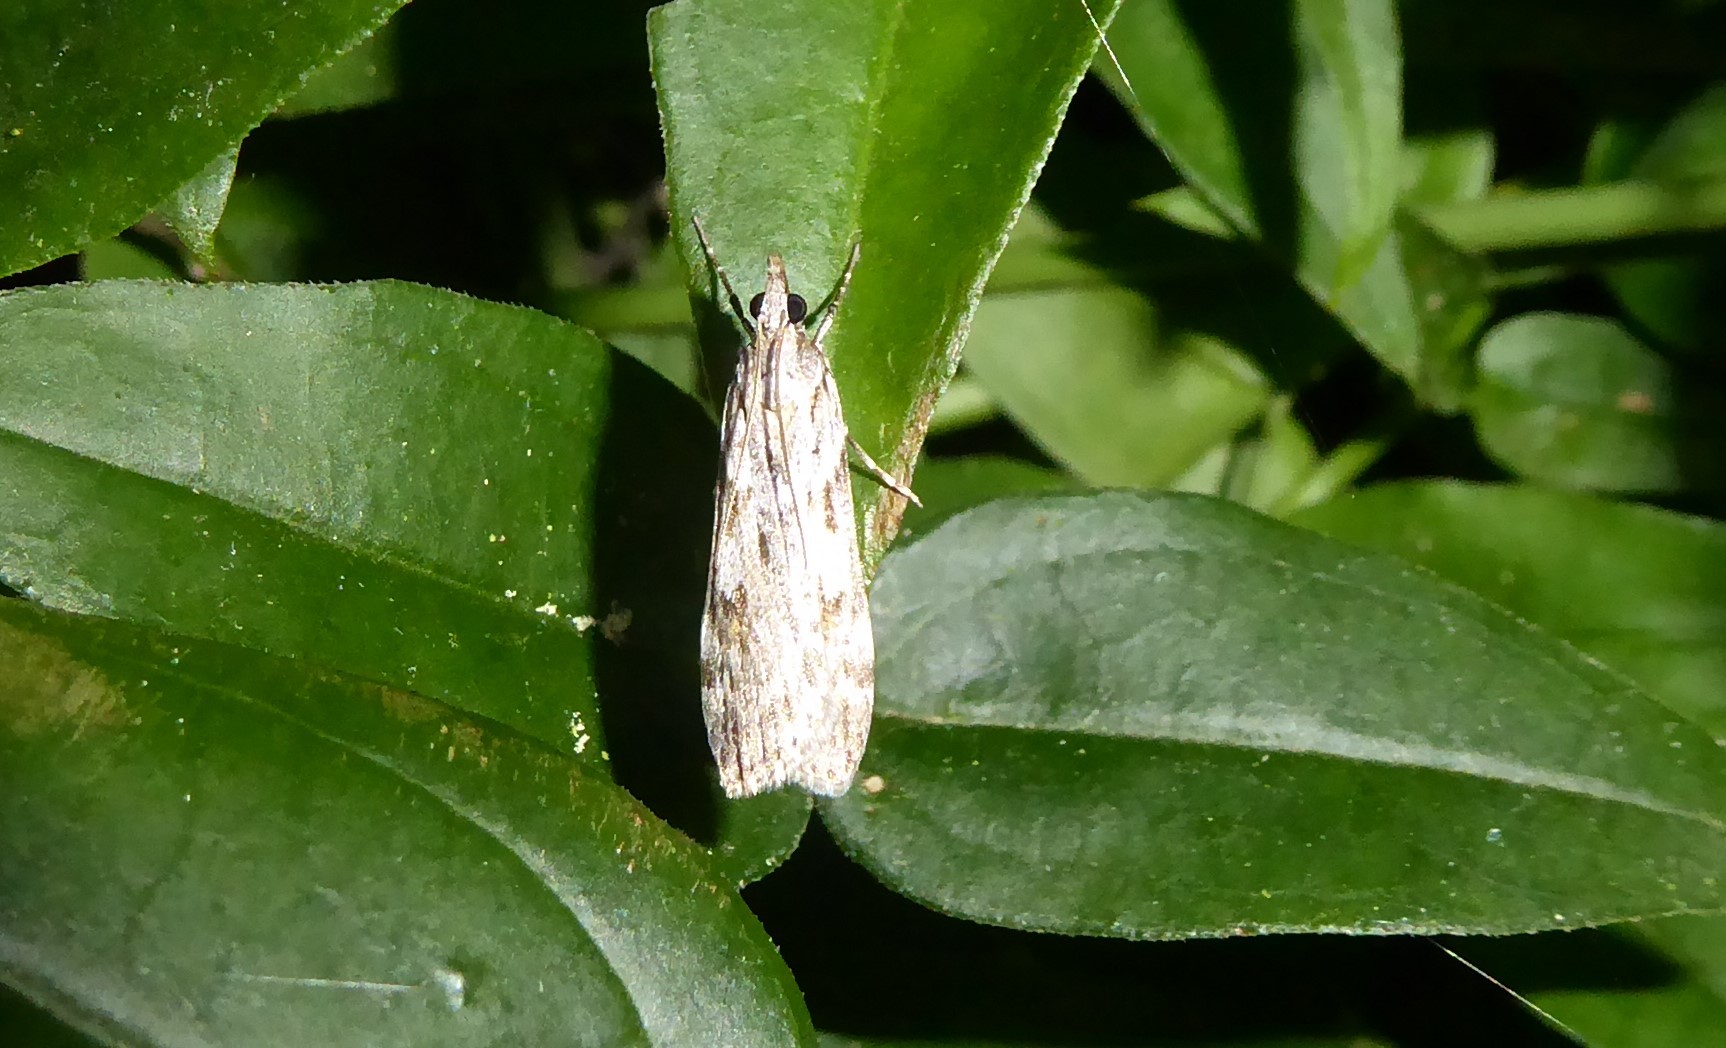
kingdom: Animalia
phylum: Arthropoda
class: Insecta
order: Lepidoptera
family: Crambidae
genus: Scoparia
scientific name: Scoparia halopis
